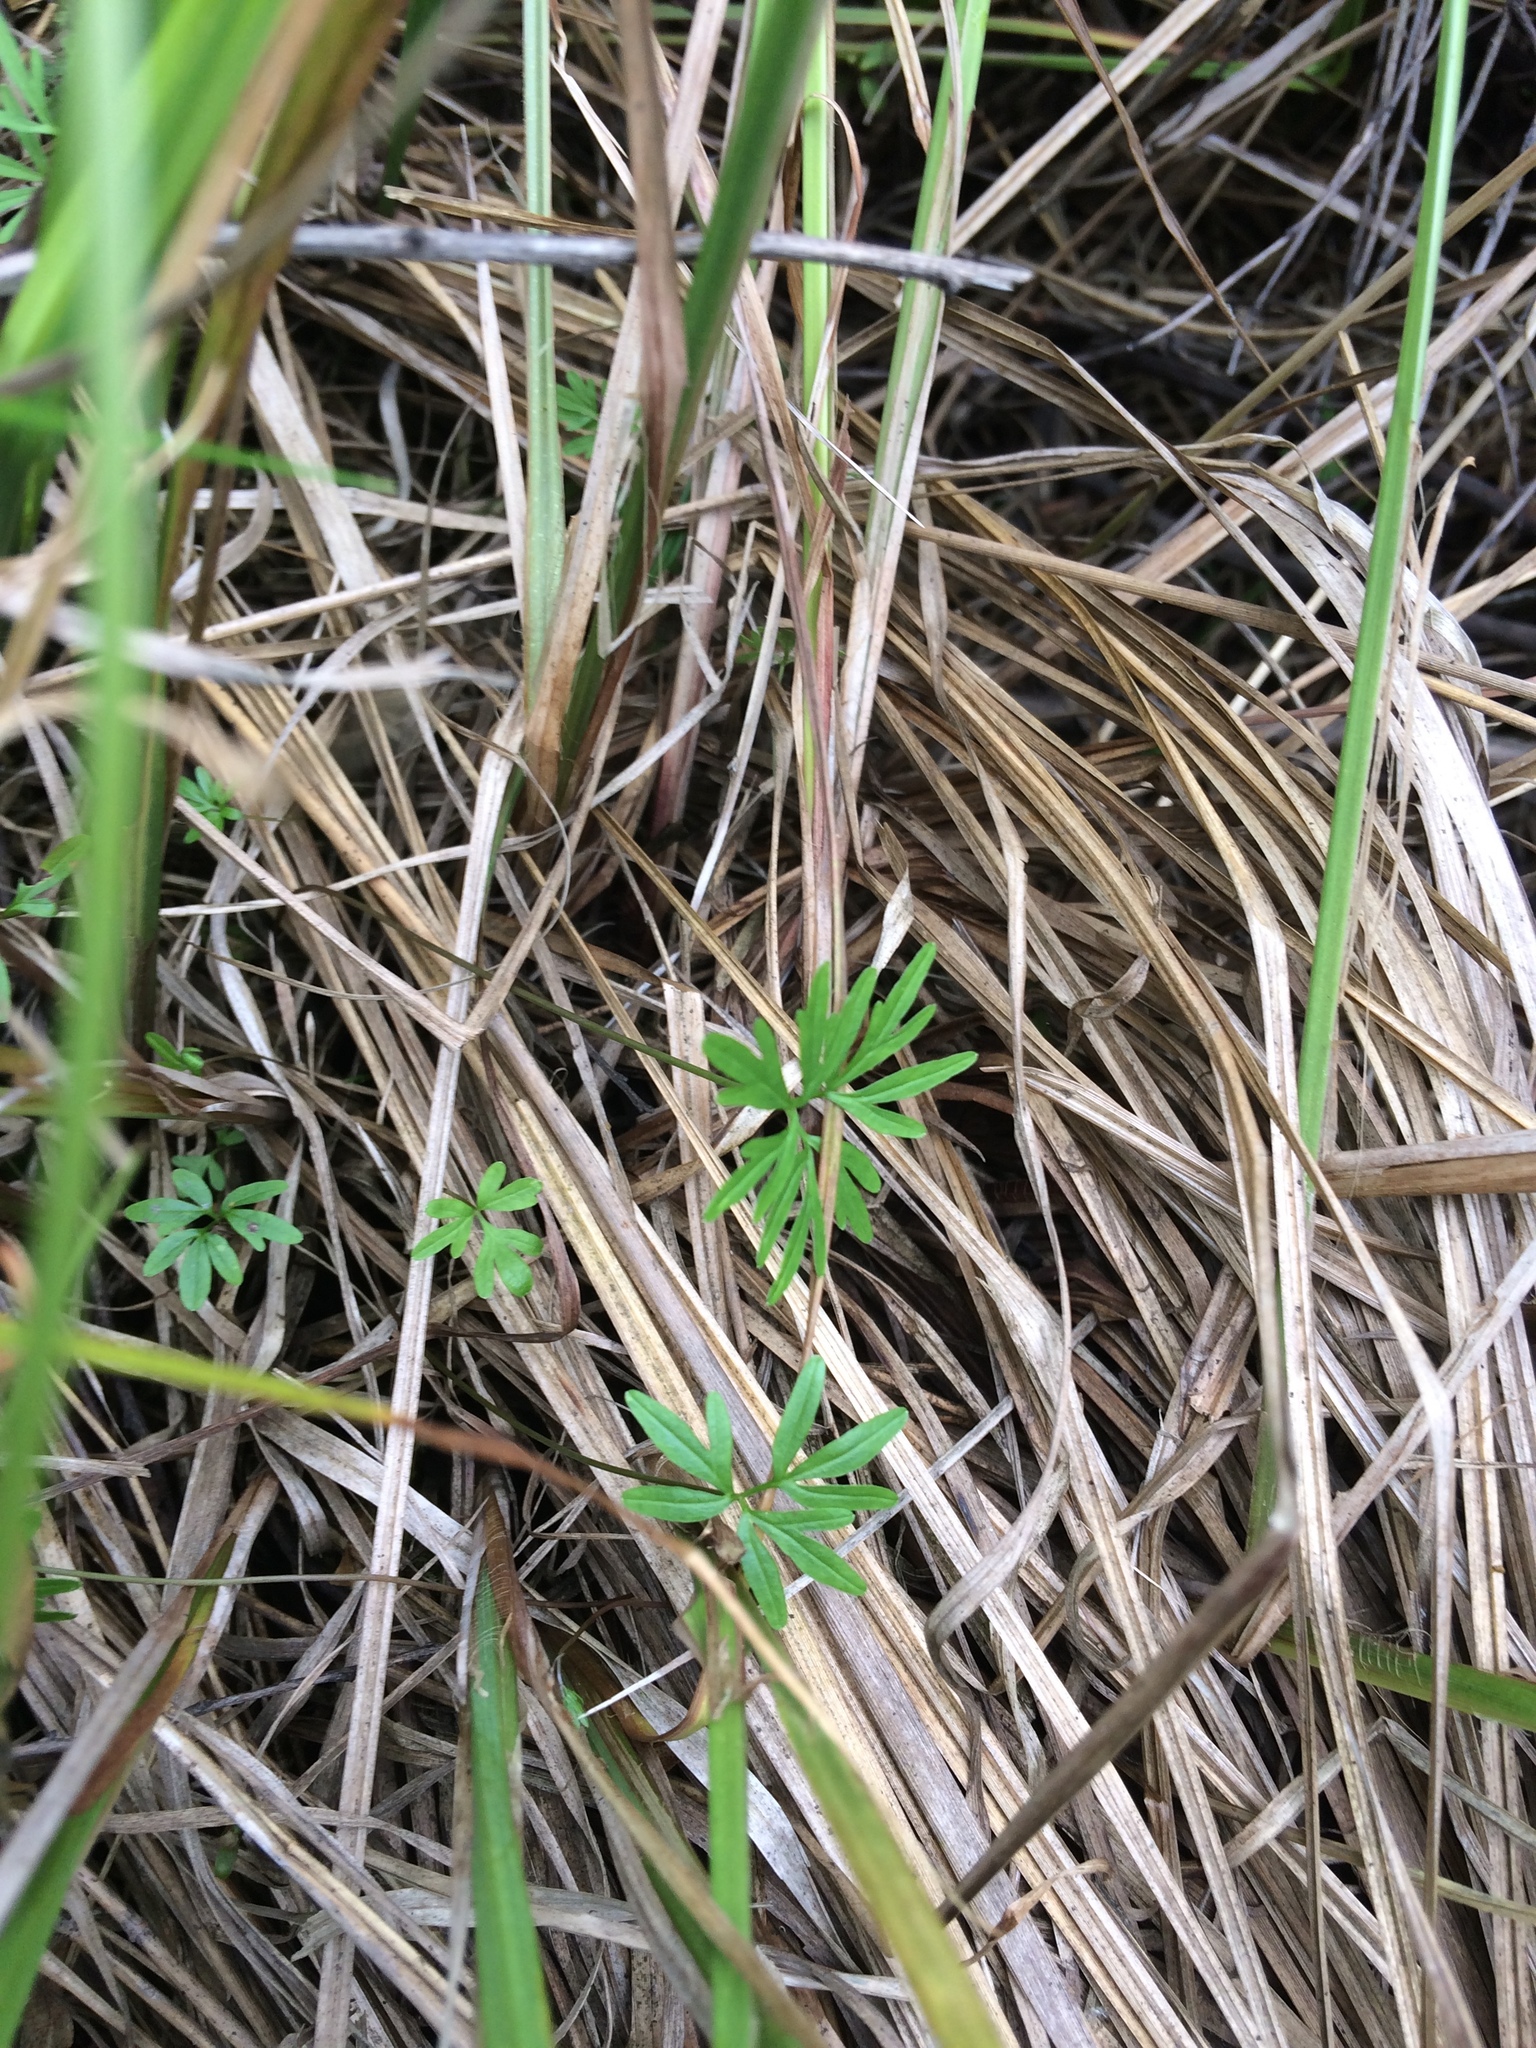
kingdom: Plantae
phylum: Tracheophyta
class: Magnoliopsida
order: Apiales
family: Apiaceae
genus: Cicuta
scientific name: Cicuta bulbifera
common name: Bulb-bearing water-hemlock
